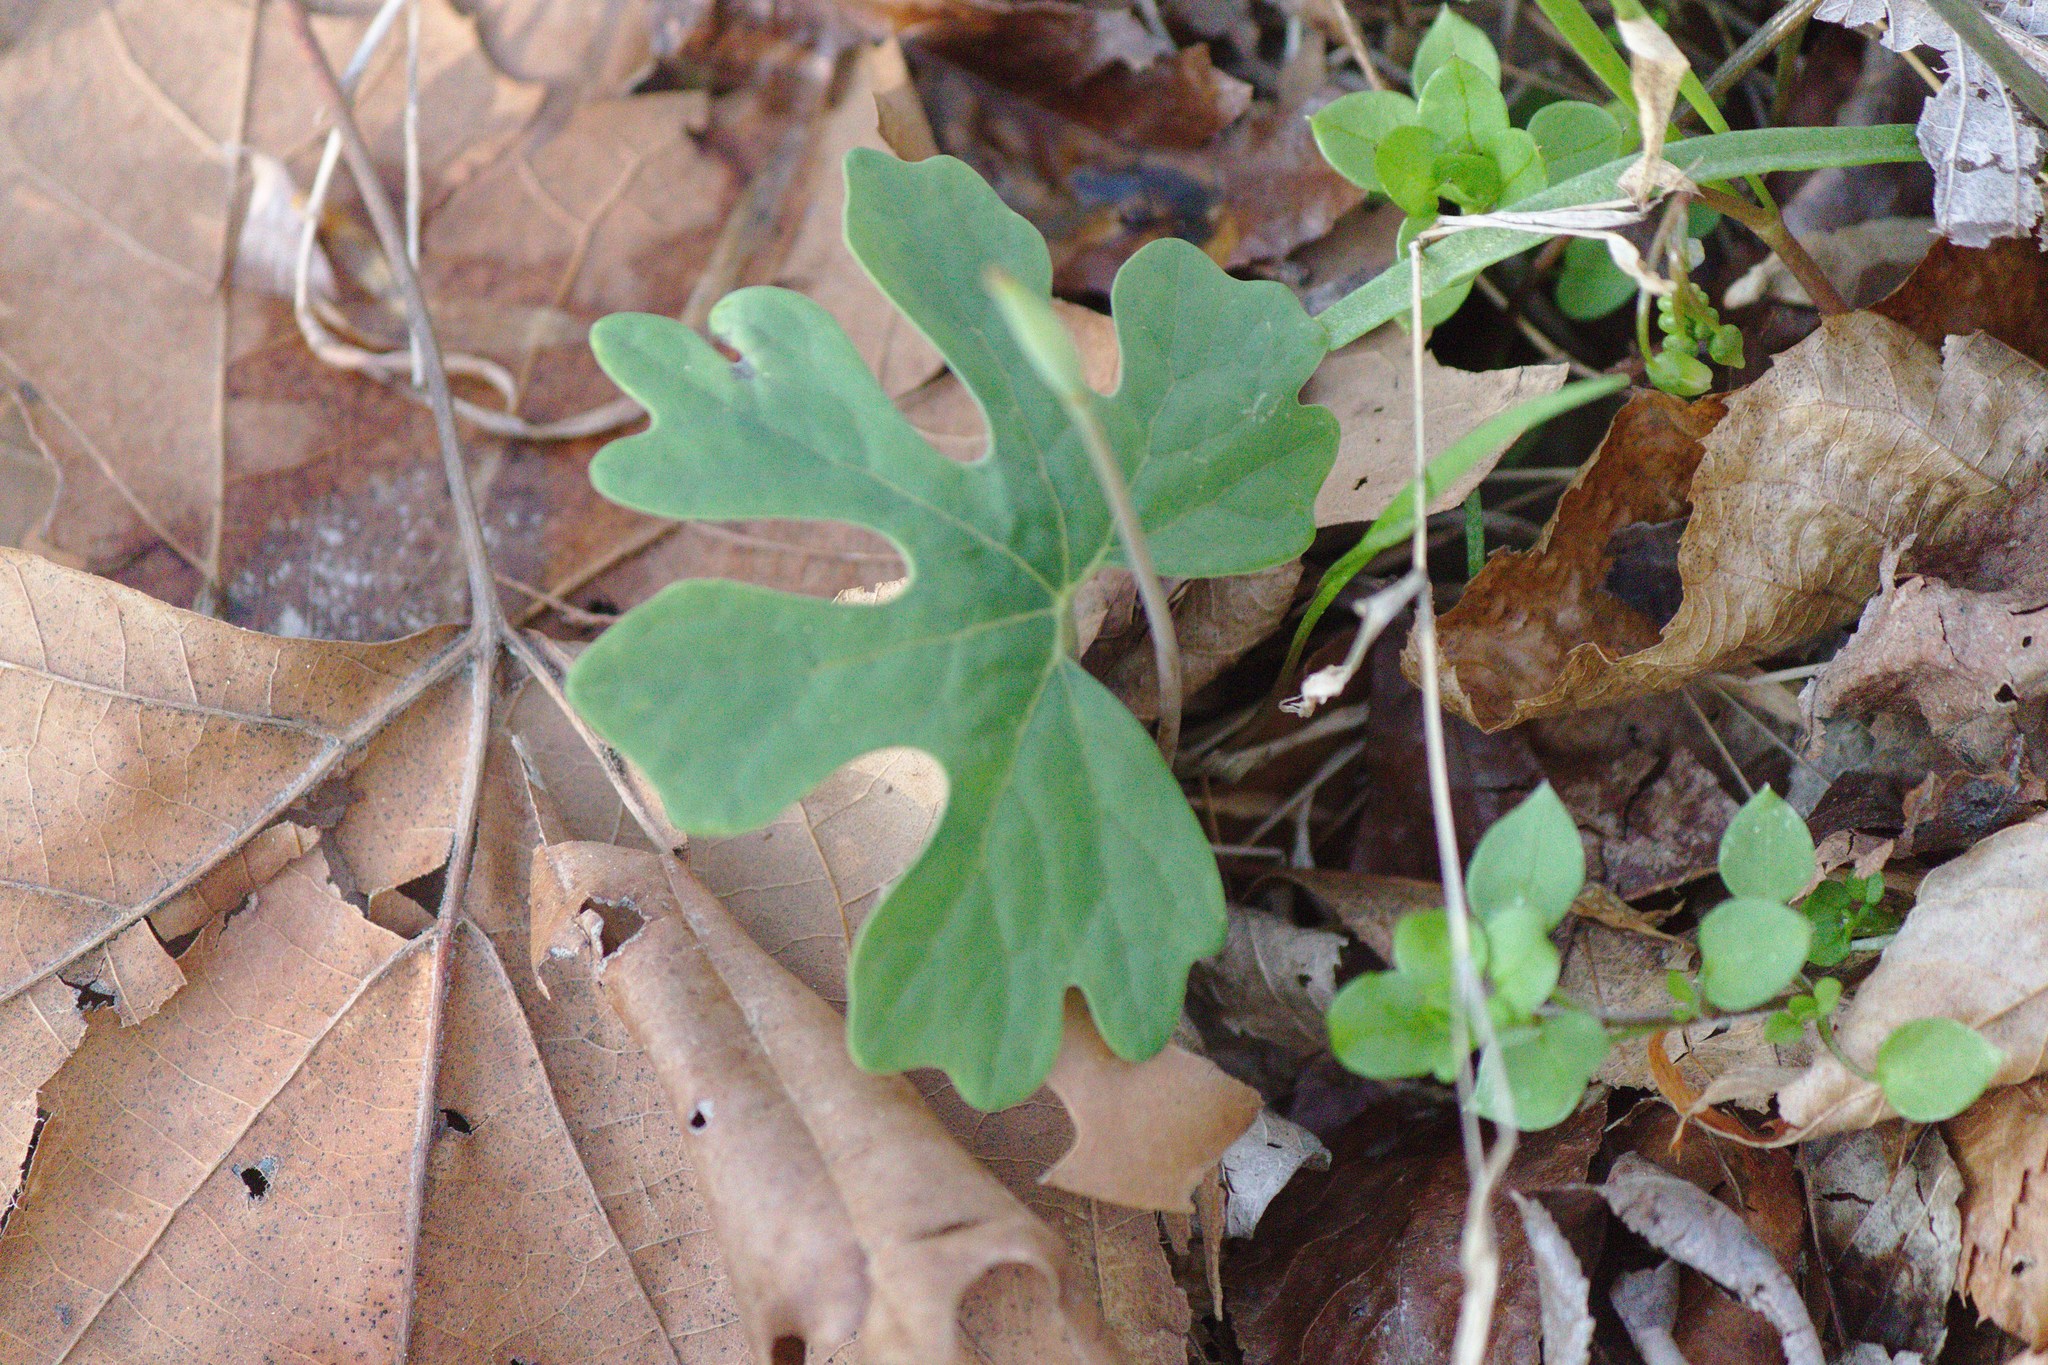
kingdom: Plantae
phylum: Tracheophyta
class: Magnoliopsida
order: Ranunculales
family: Papaveraceae
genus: Sanguinaria
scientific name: Sanguinaria canadensis
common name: Bloodroot
